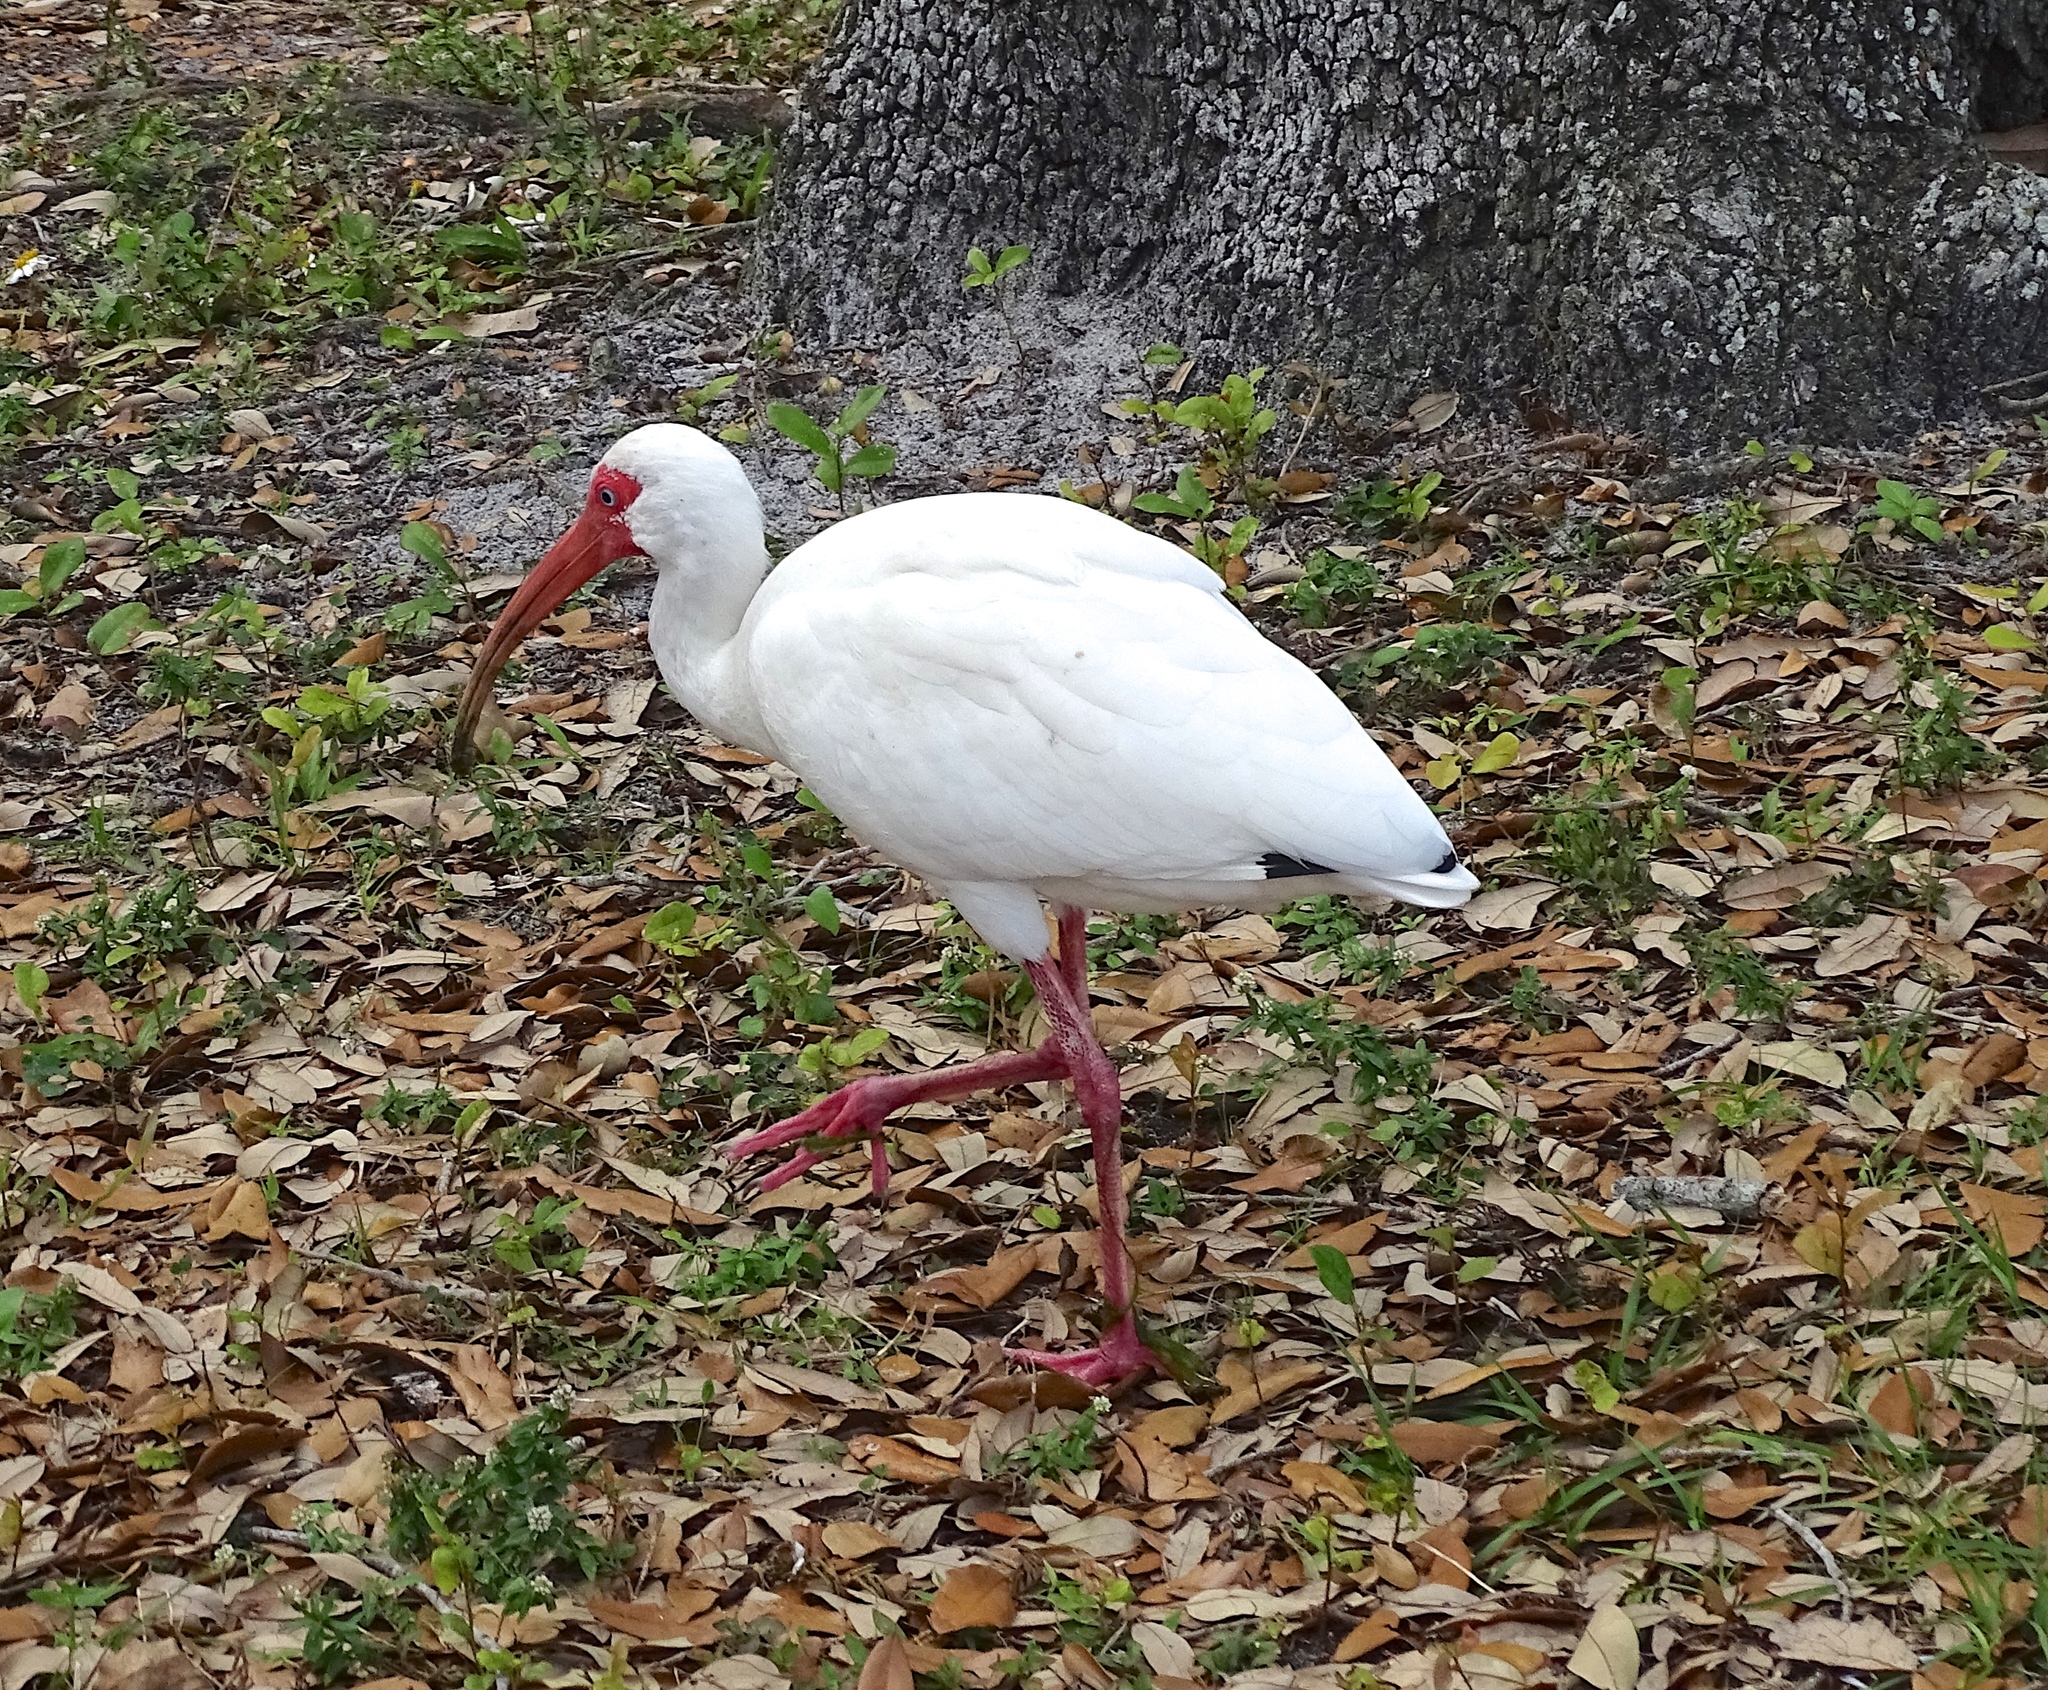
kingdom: Animalia
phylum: Chordata
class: Aves
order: Pelecaniformes
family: Threskiornithidae
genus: Eudocimus
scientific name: Eudocimus albus
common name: White ibis
